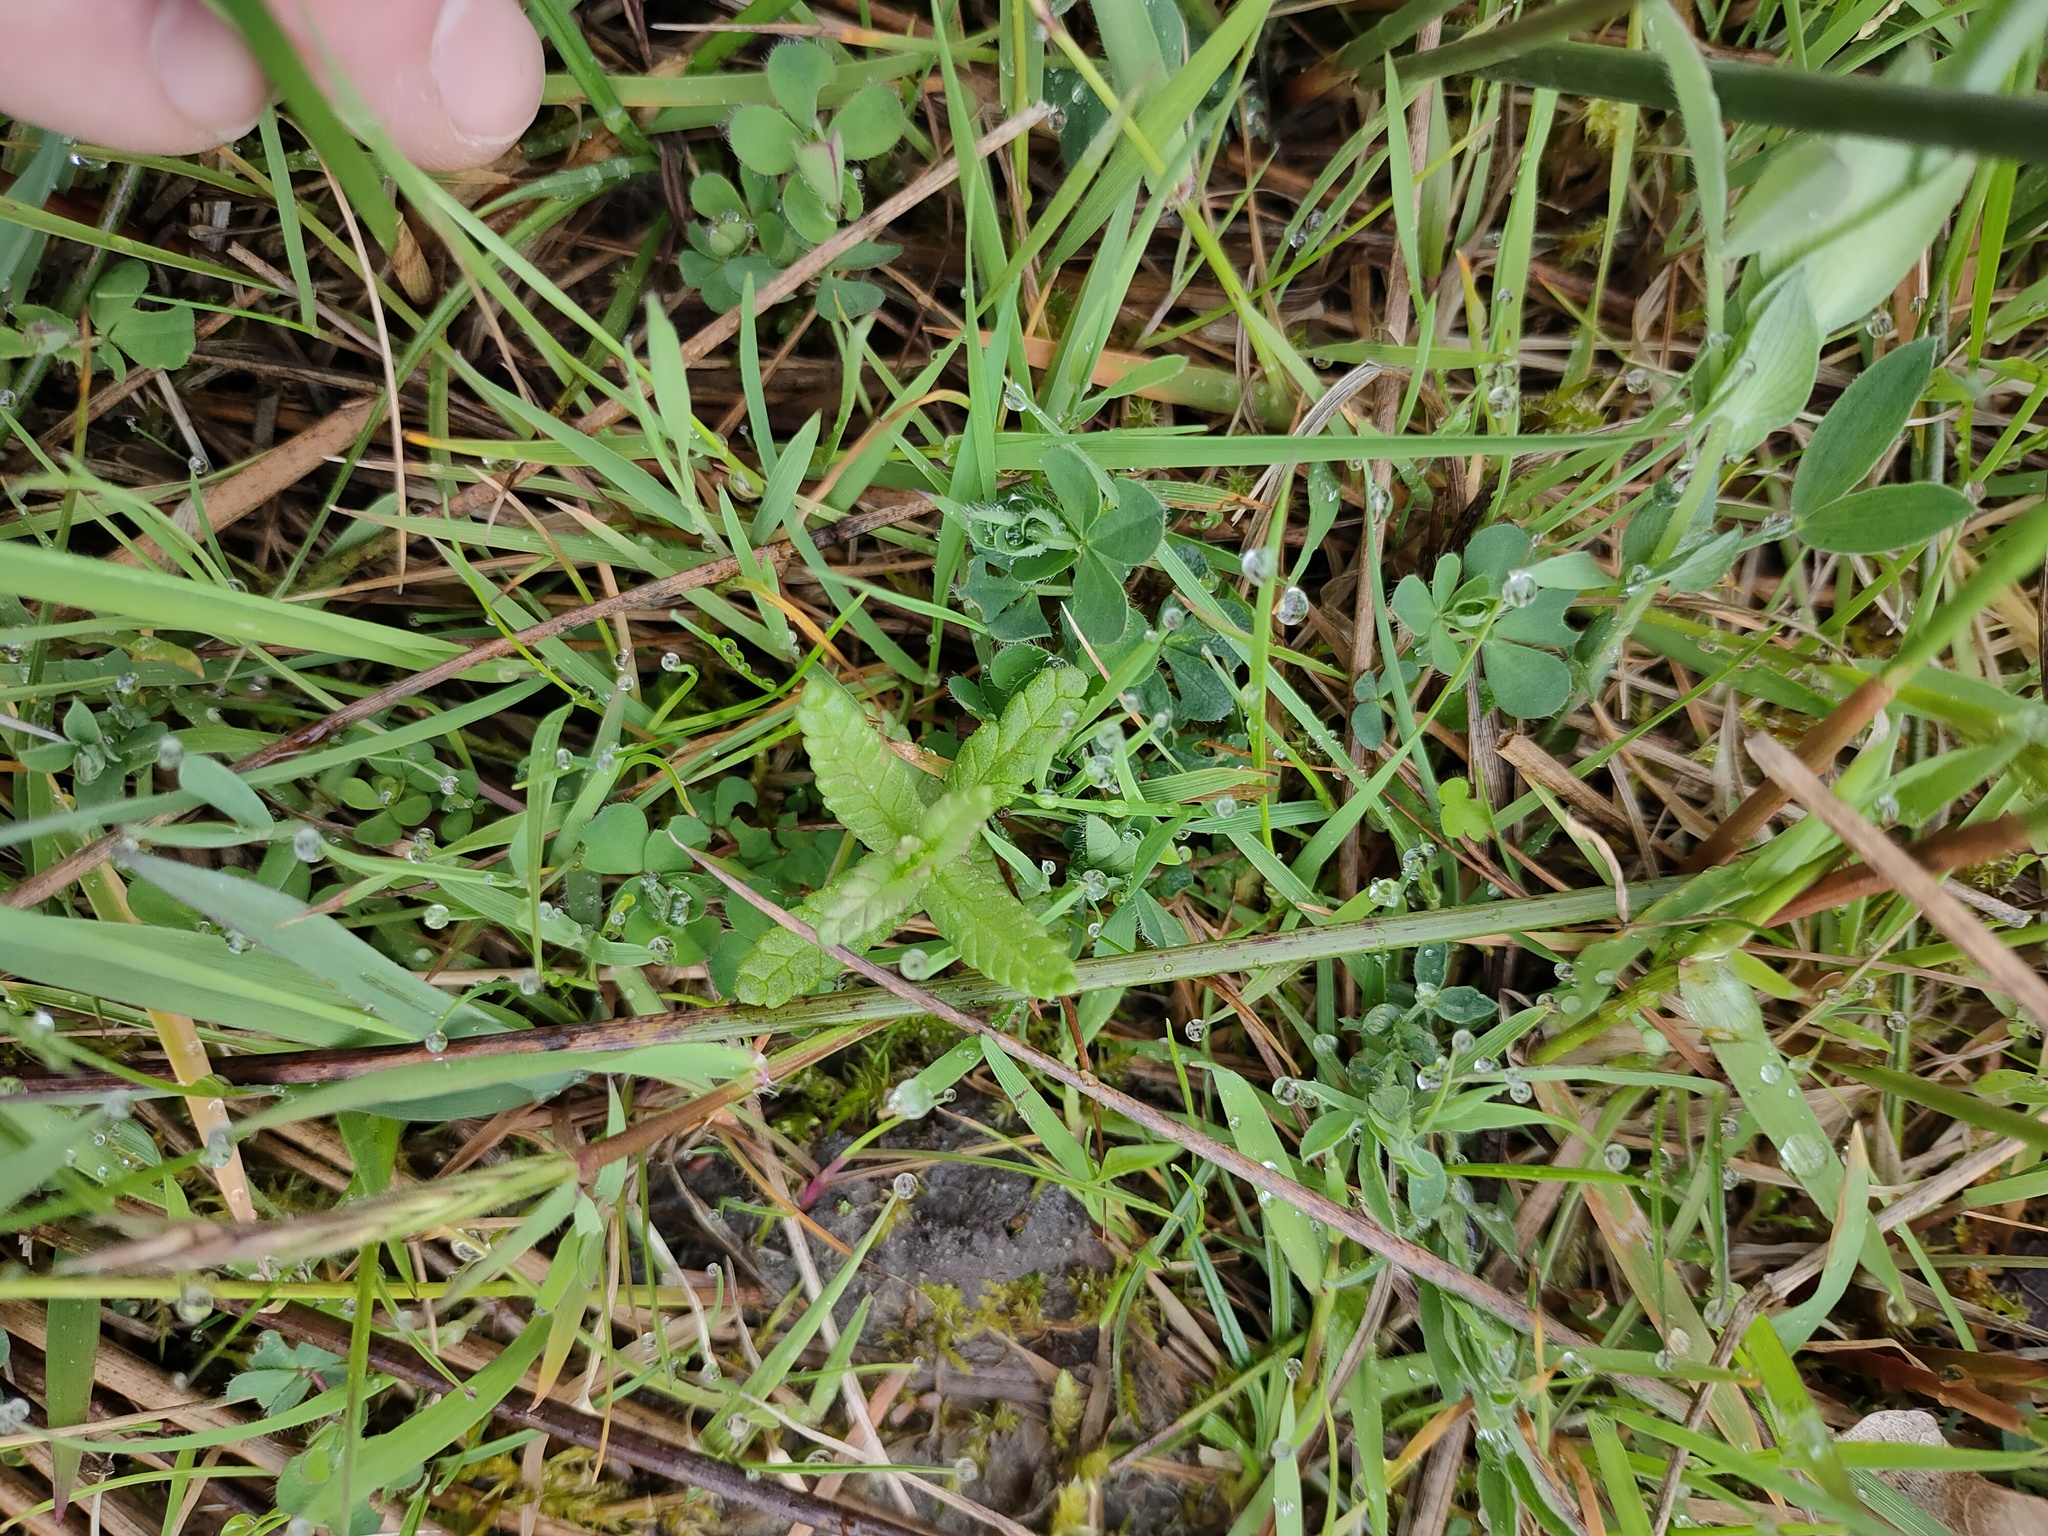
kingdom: Plantae
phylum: Tracheophyta
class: Magnoliopsida
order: Lamiales
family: Orobanchaceae
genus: Rhinanthus
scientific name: Rhinanthus minor
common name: Yellow-rattle
